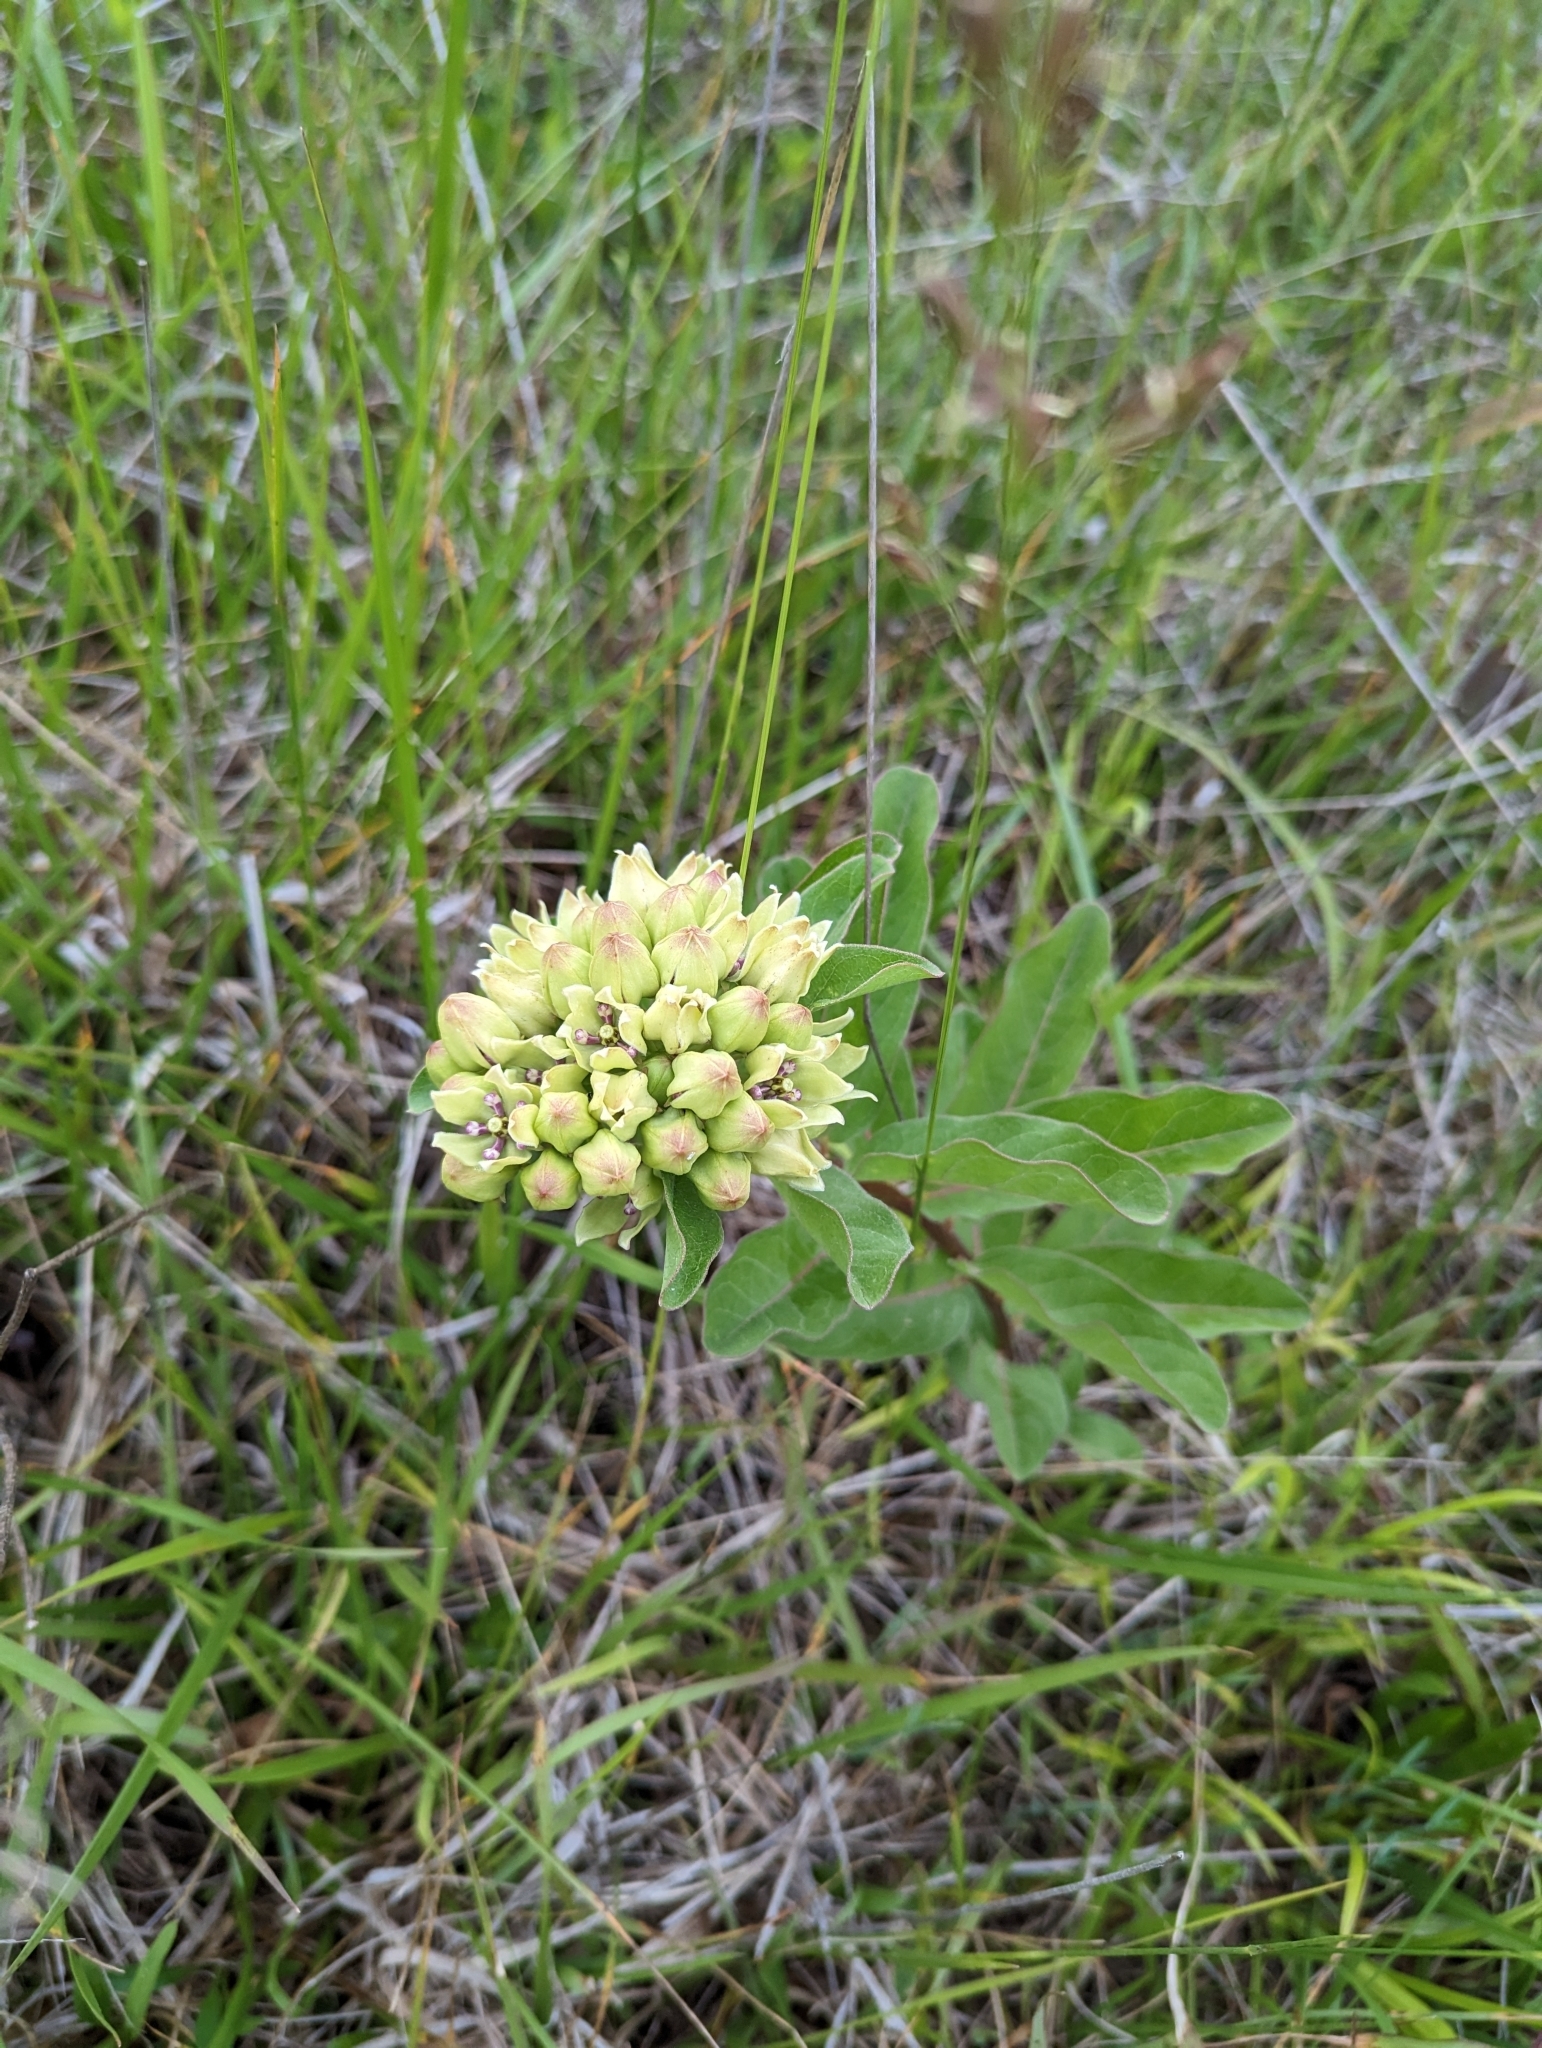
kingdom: Plantae
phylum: Tracheophyta
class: Magnoliopsida
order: Gentianales
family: Apocynaceae
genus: Asclepias
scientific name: Asclepias viridis
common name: Antelope-horns
